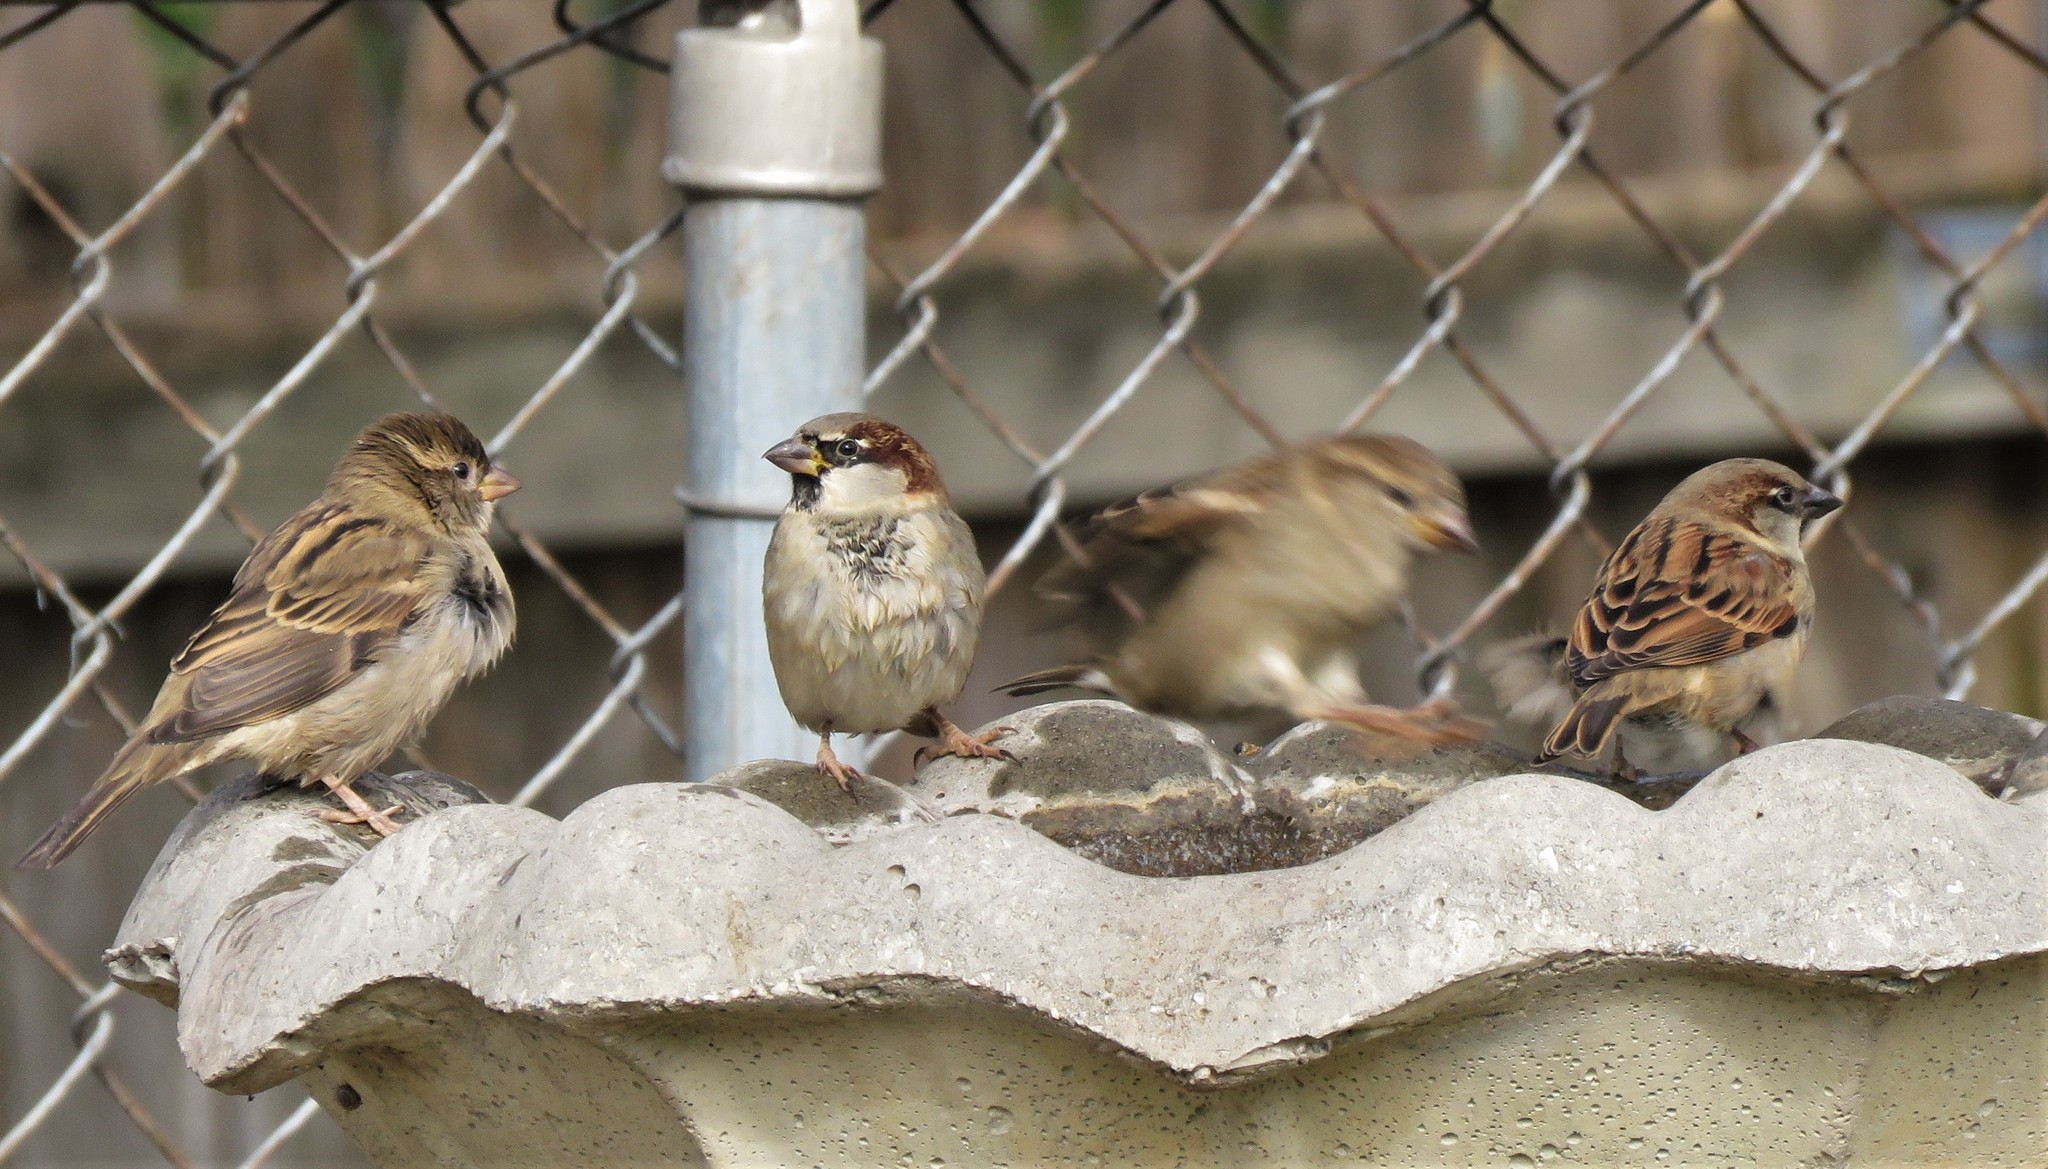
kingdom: Animalia
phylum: Chordata
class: Aves
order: Passeriformes
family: Passeridae
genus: Passer
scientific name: Passer domesticus
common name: House sparrow
